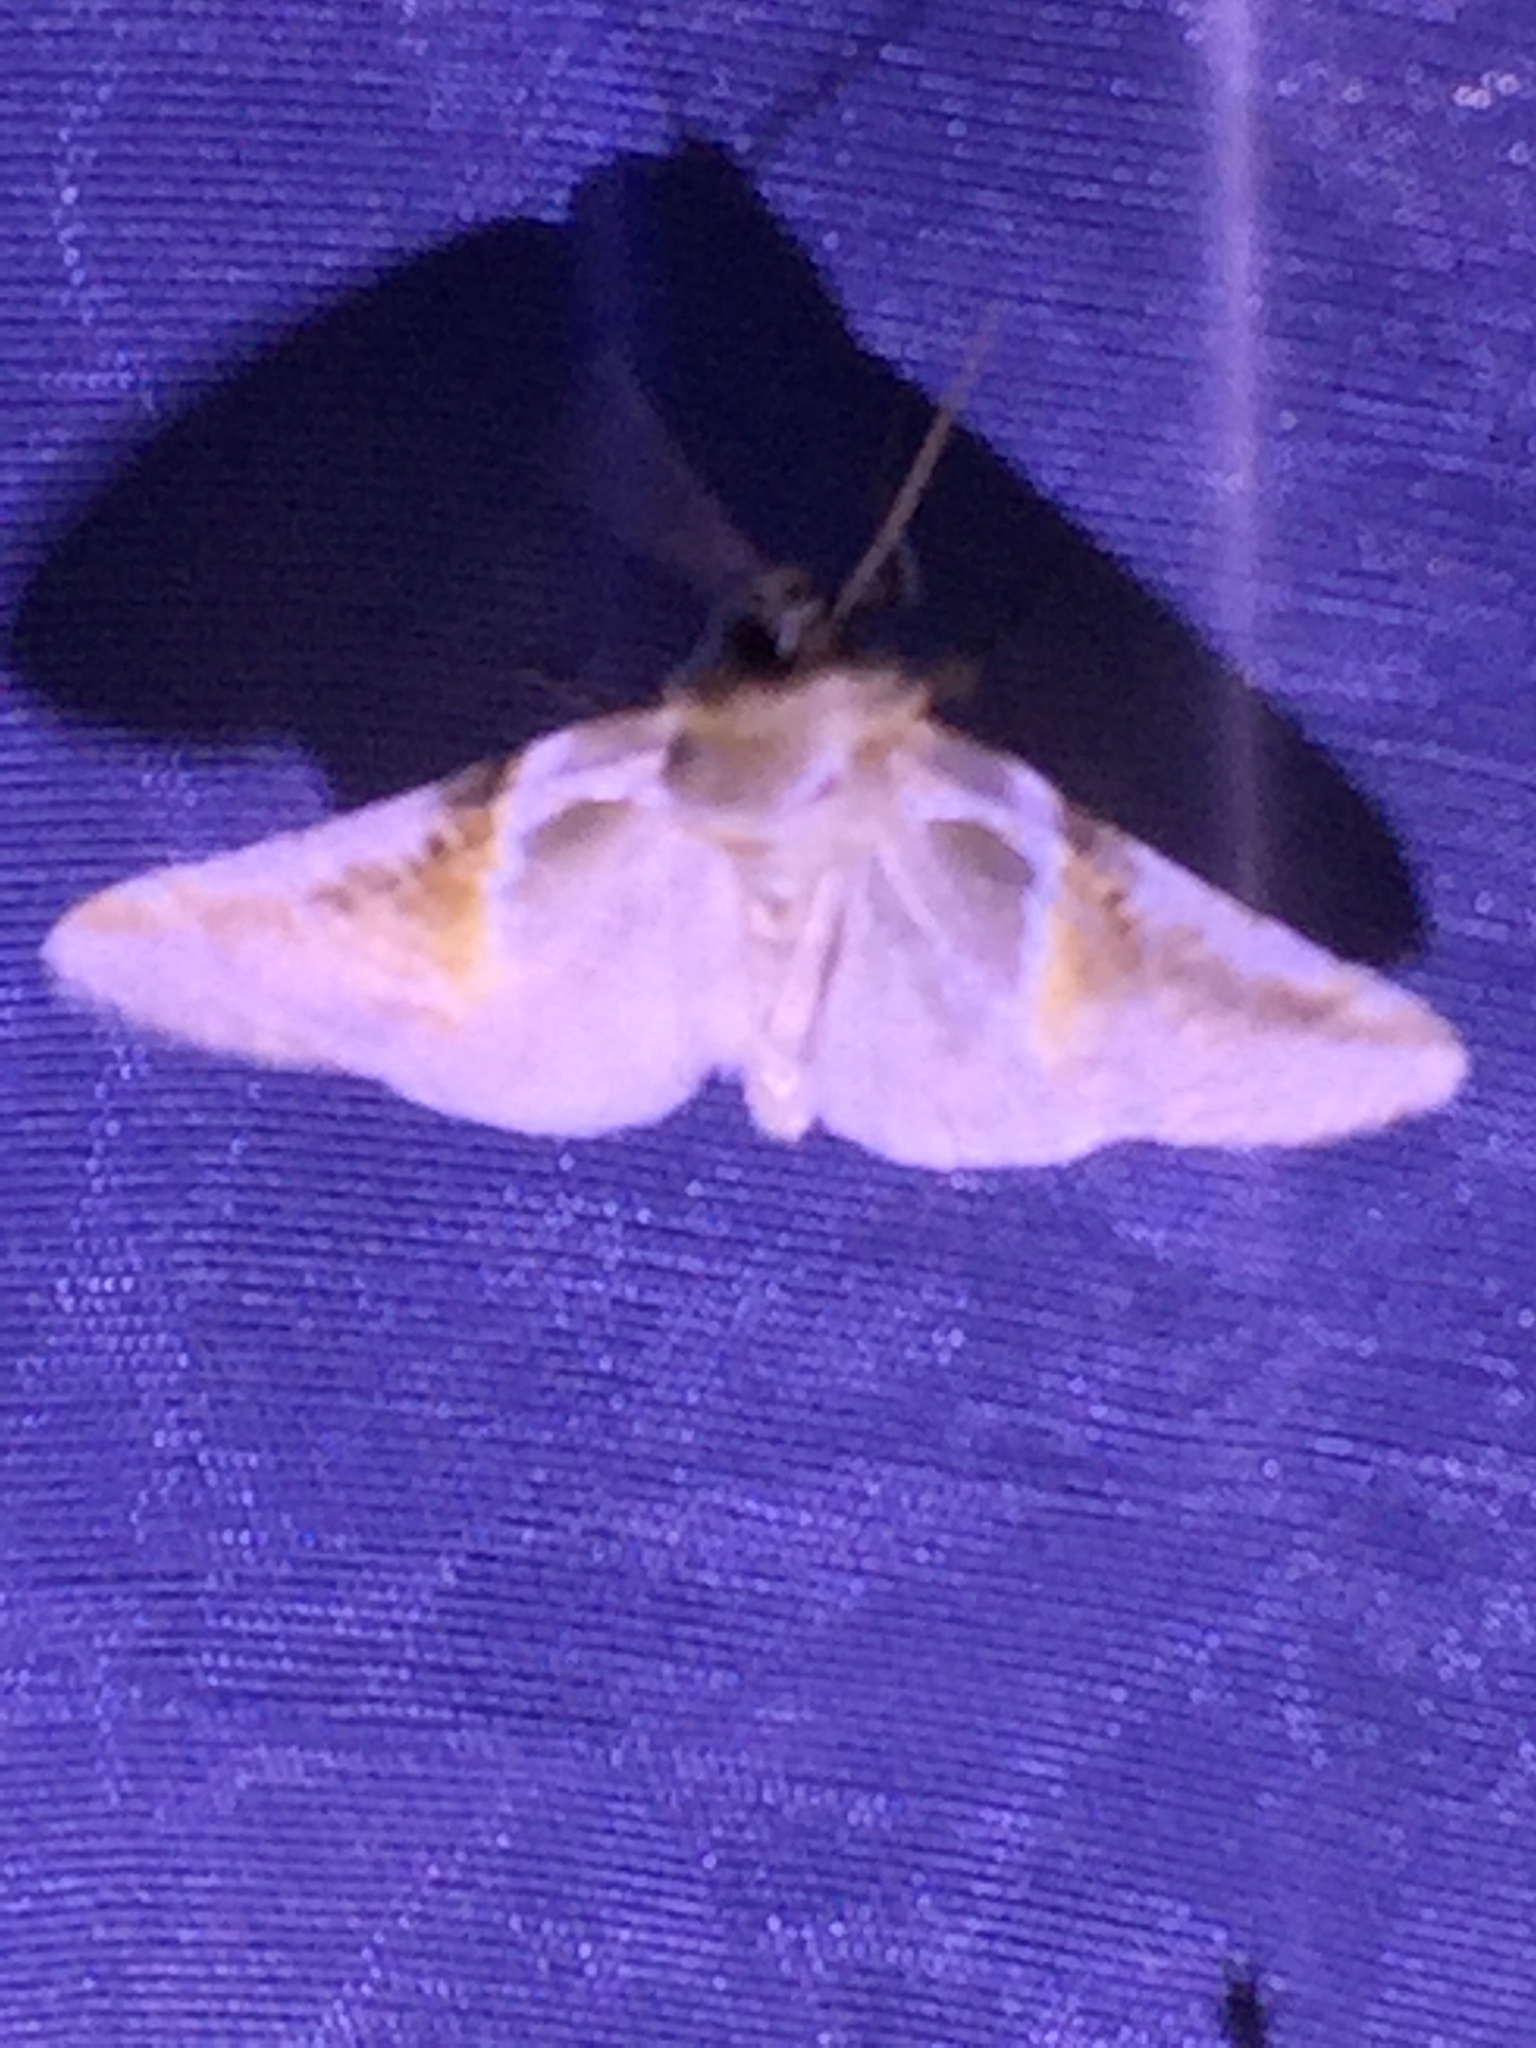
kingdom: Animalia
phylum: Arthropoda
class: Insecta
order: Lepidoptera
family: Drepanidae
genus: Habrosyne
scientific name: Habrosyne pyritoides
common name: Buff arches
